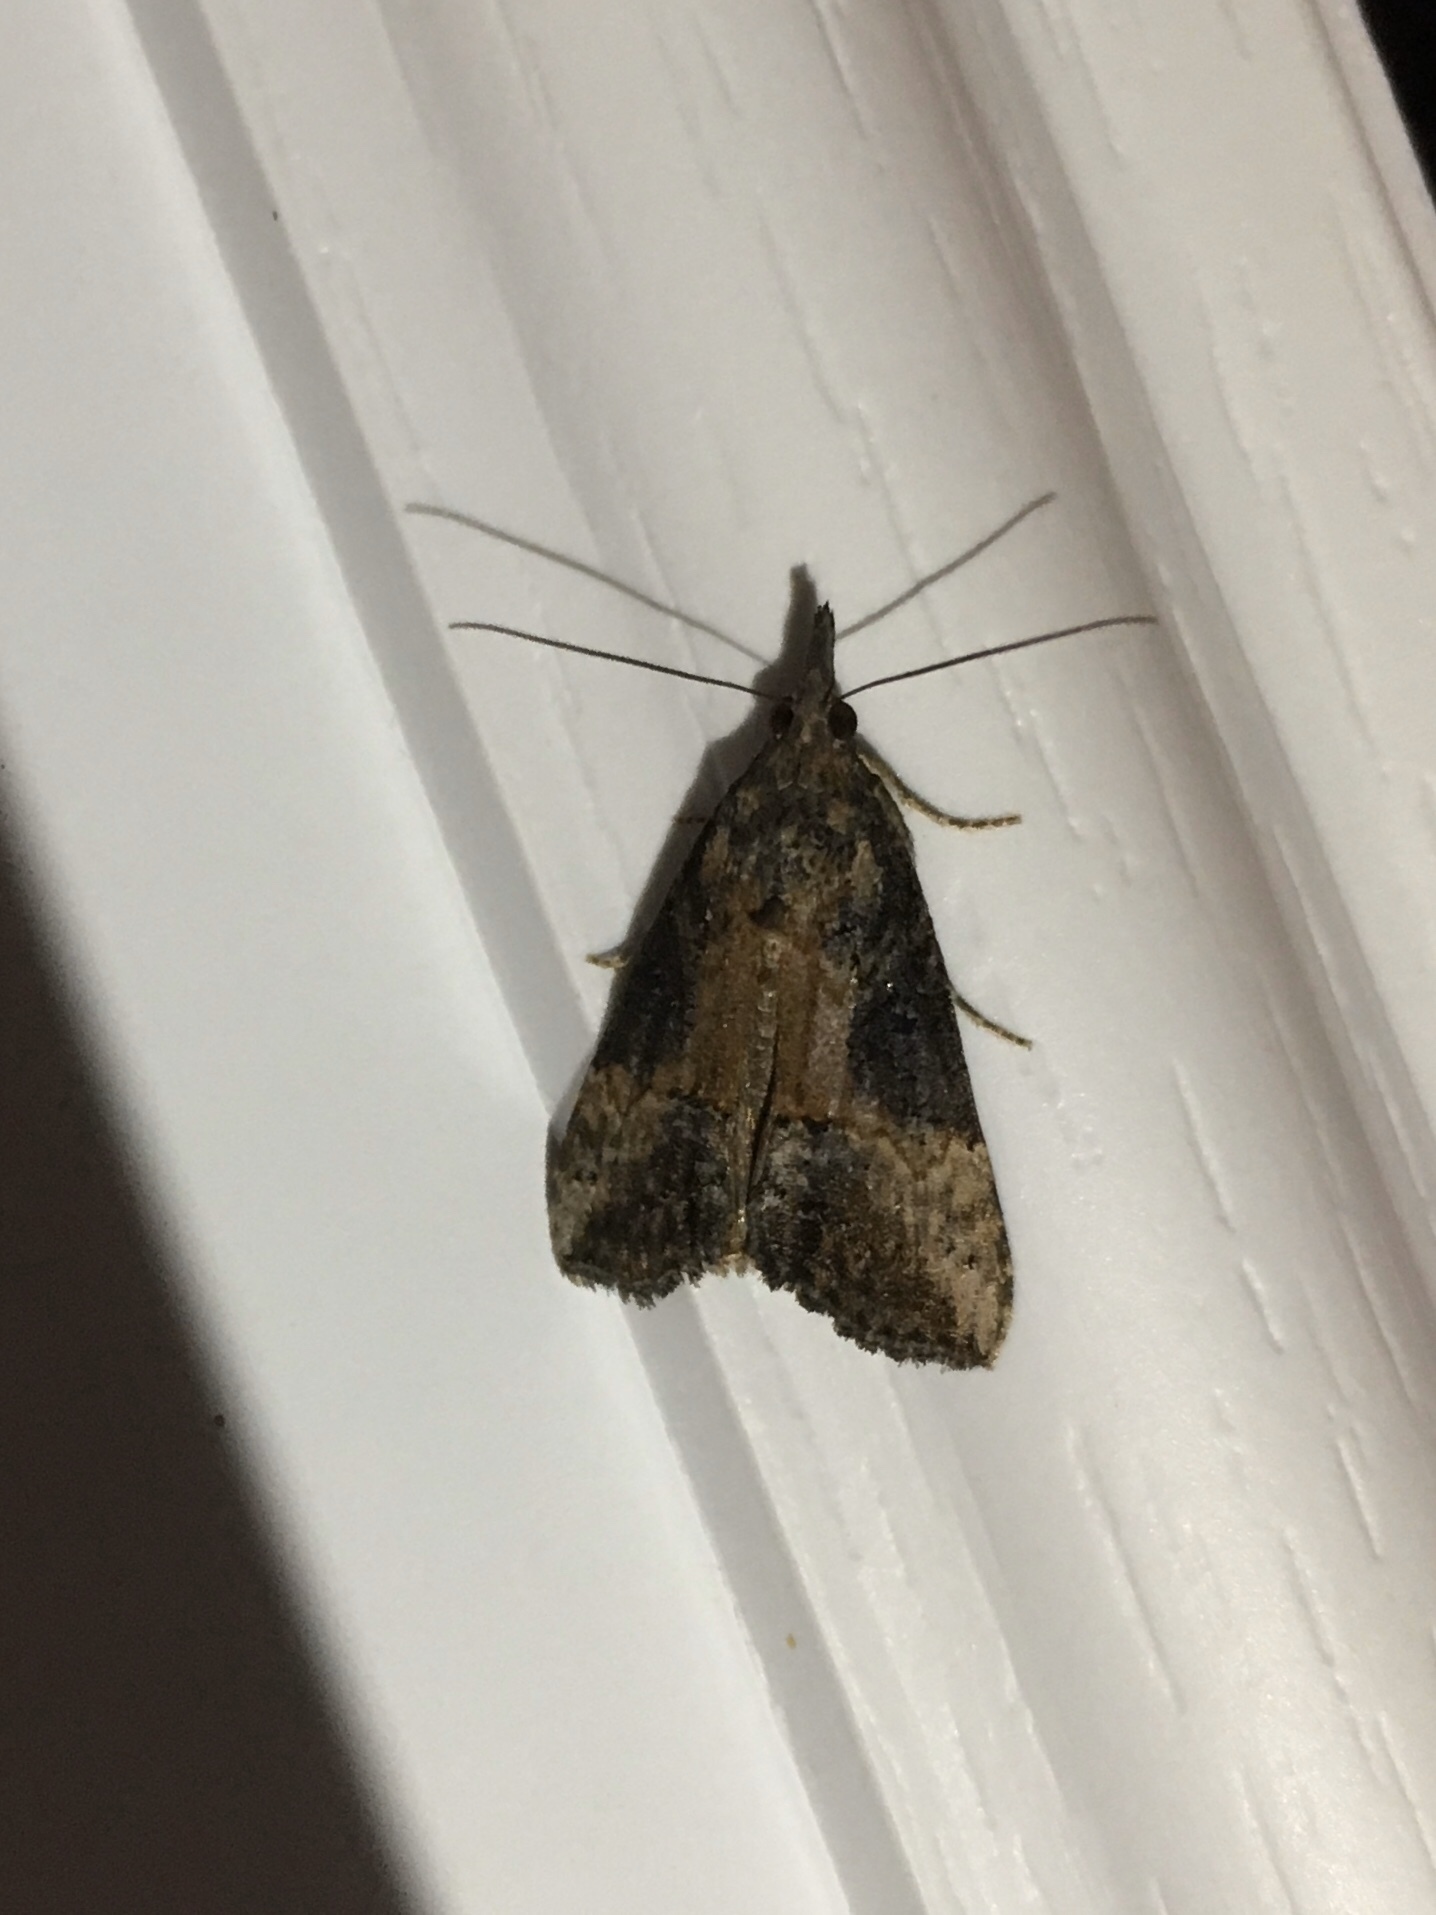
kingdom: Animalia
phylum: Arthropoda
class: Insecta
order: Lepidoptera
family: Erebidae
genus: Hypena
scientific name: Hypena scabra
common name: Green cloverworm
